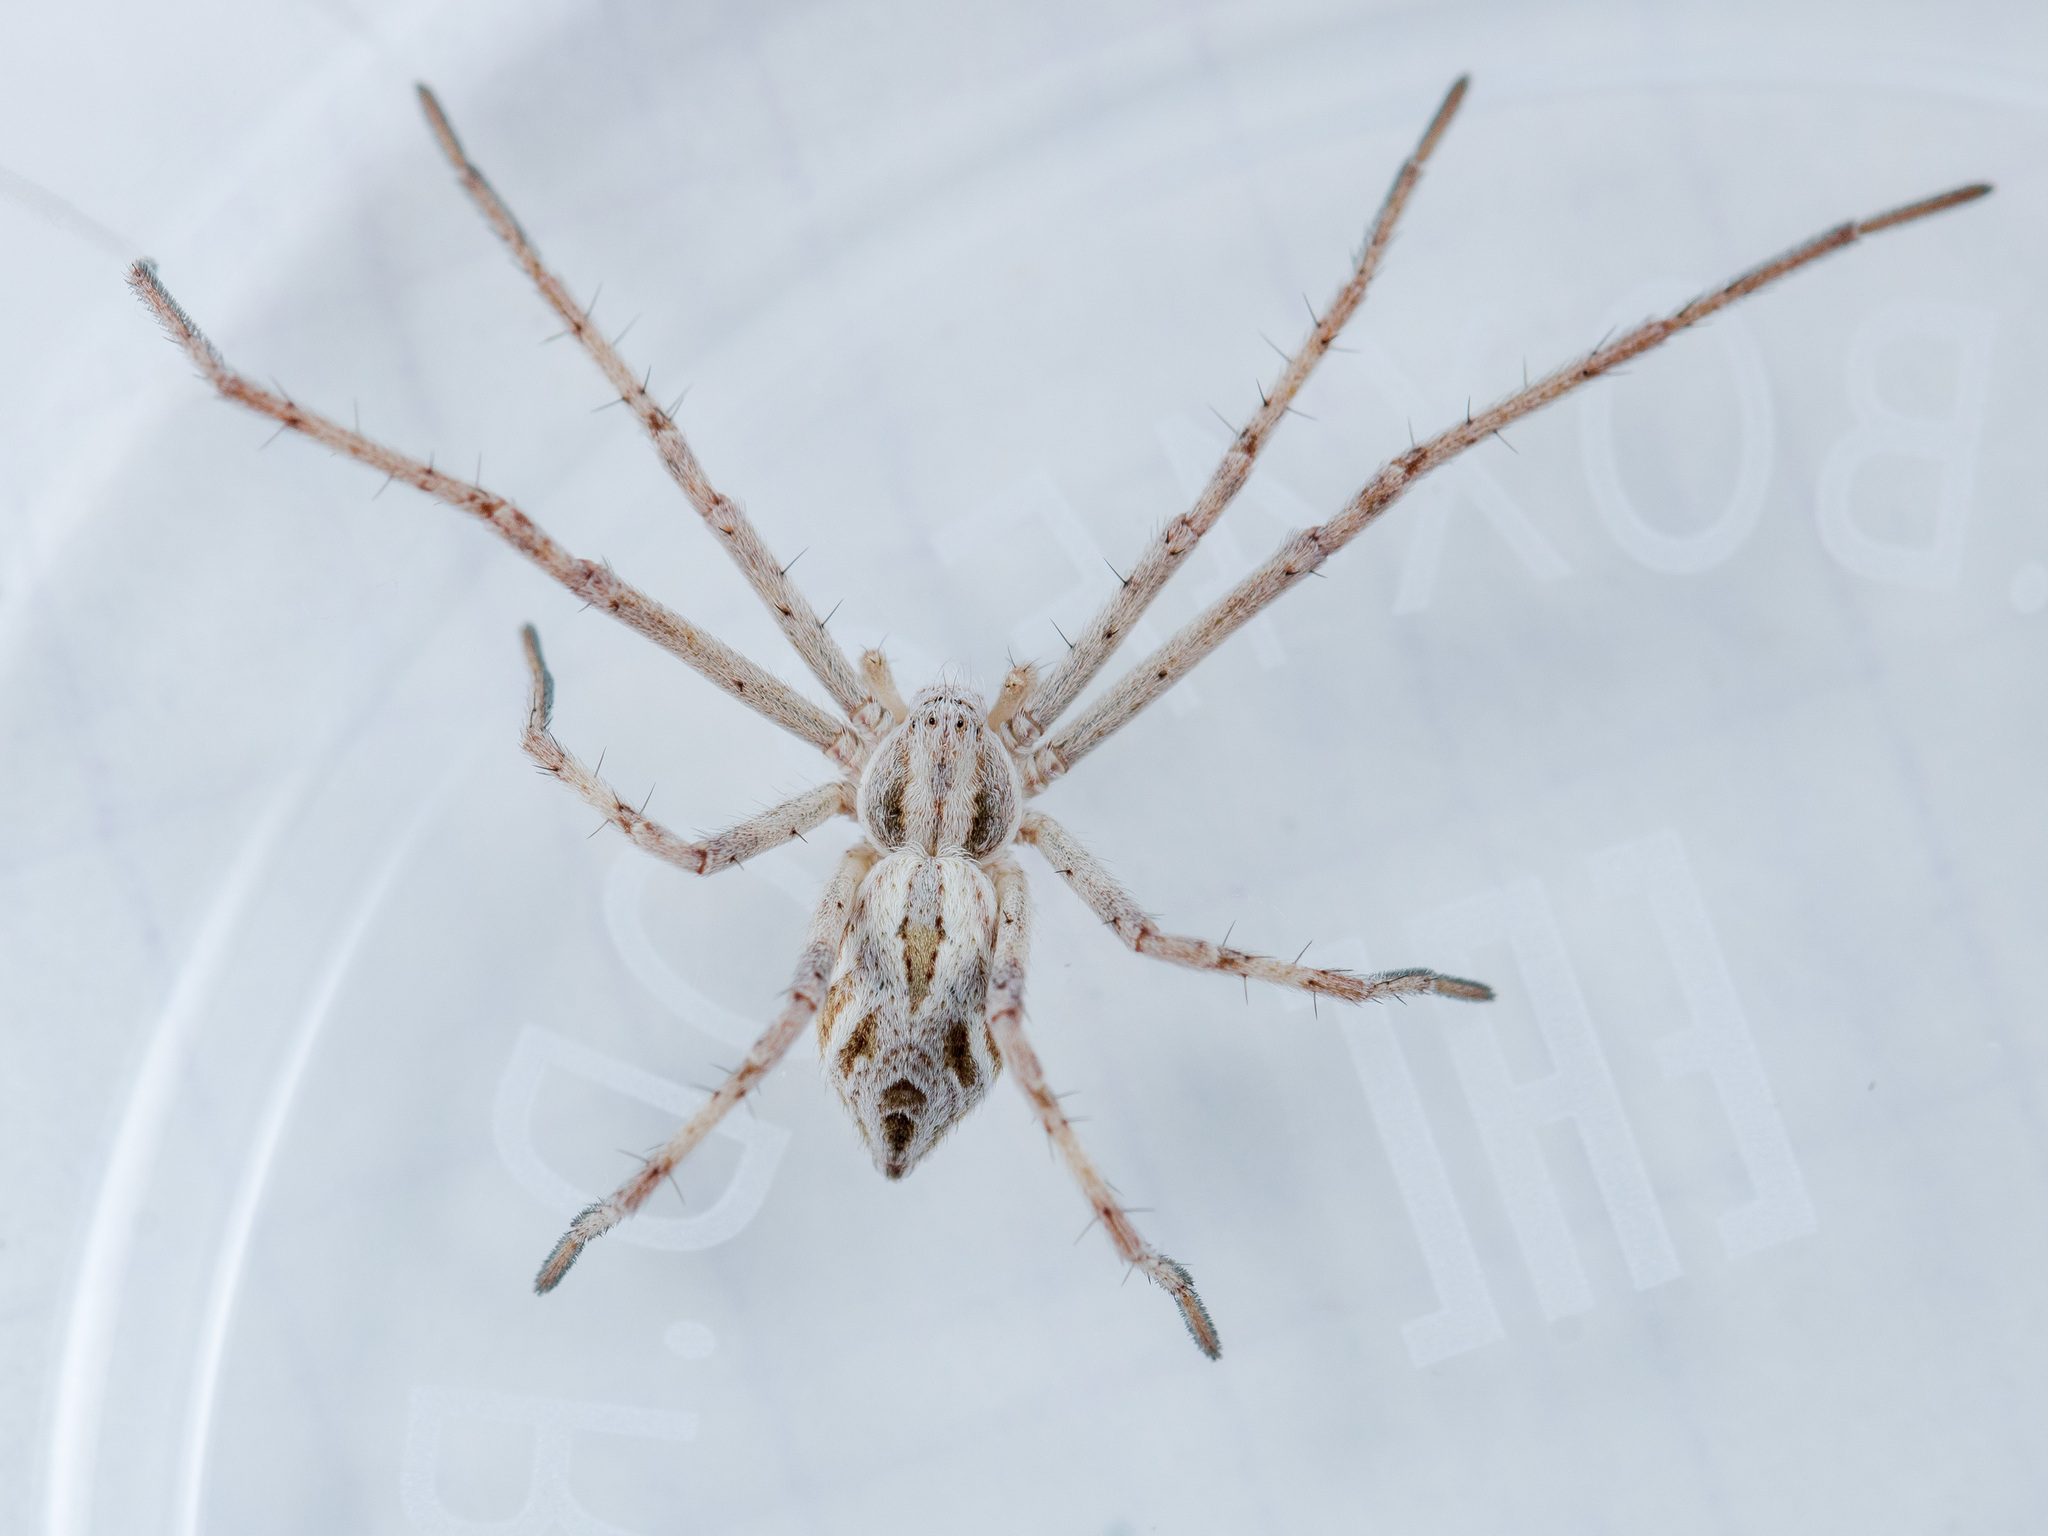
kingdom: Animalia
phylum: Arthropoda
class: Arachnida
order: Araneae
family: Philodromidae
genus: Rhysodromus
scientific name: Rhysodromus ablegminus
